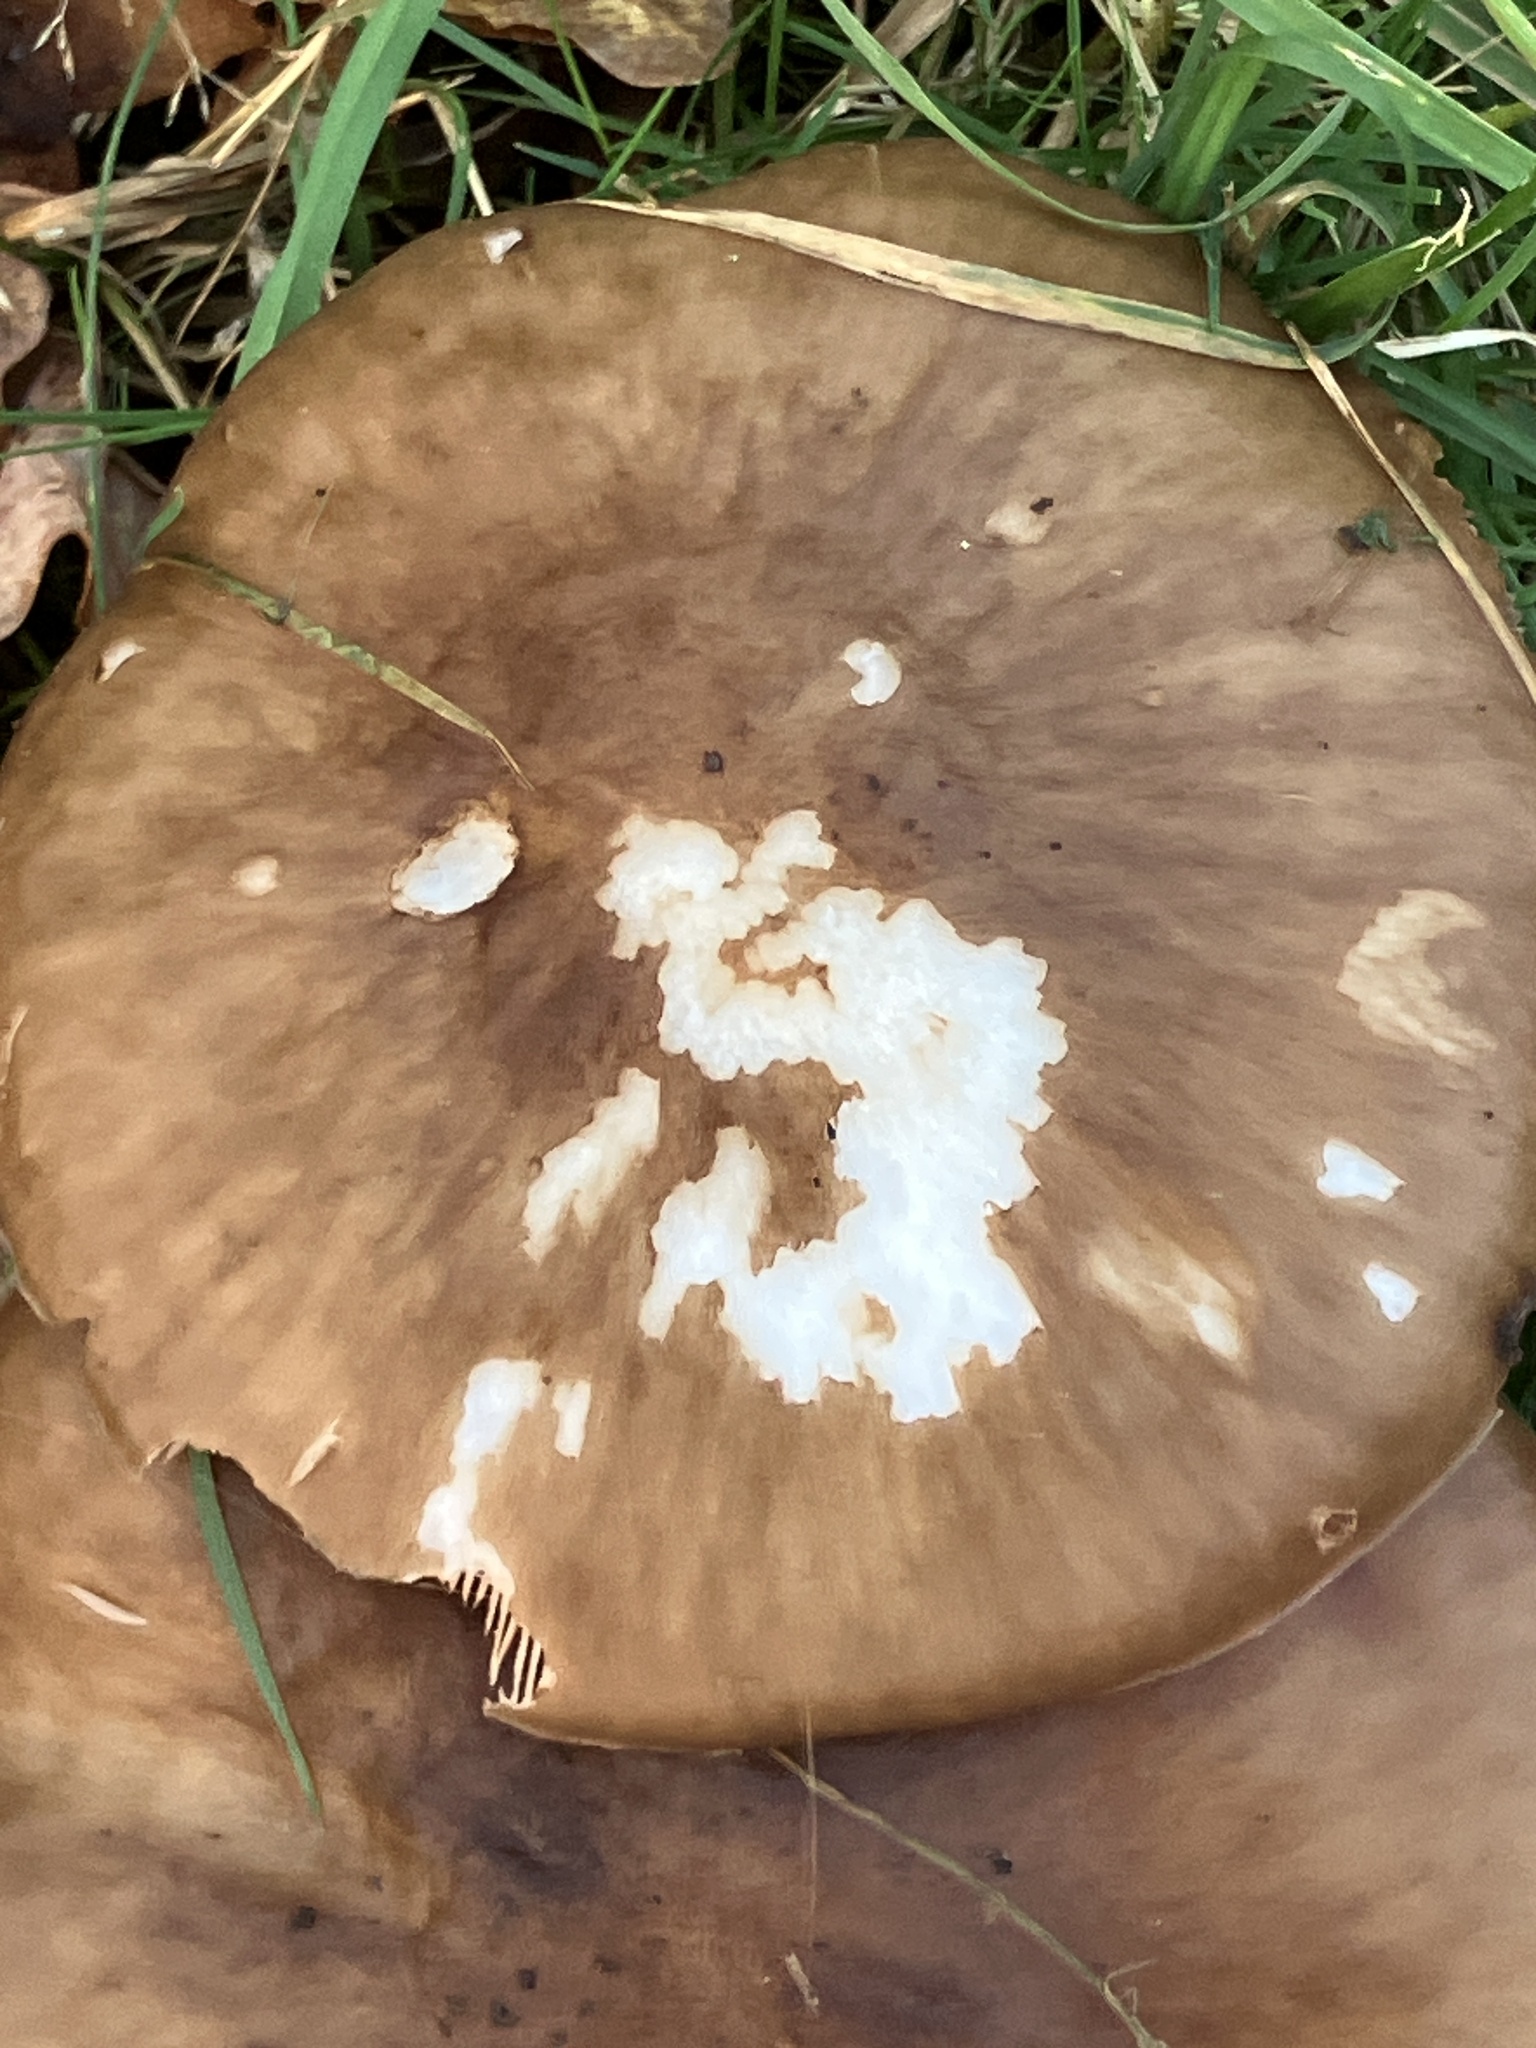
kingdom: Fungi
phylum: Basidiomycota
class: Agaricomycetes
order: Agaricales
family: Pluteaceae
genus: Pluteus
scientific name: Pluteus cervinus
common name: Deer shield
